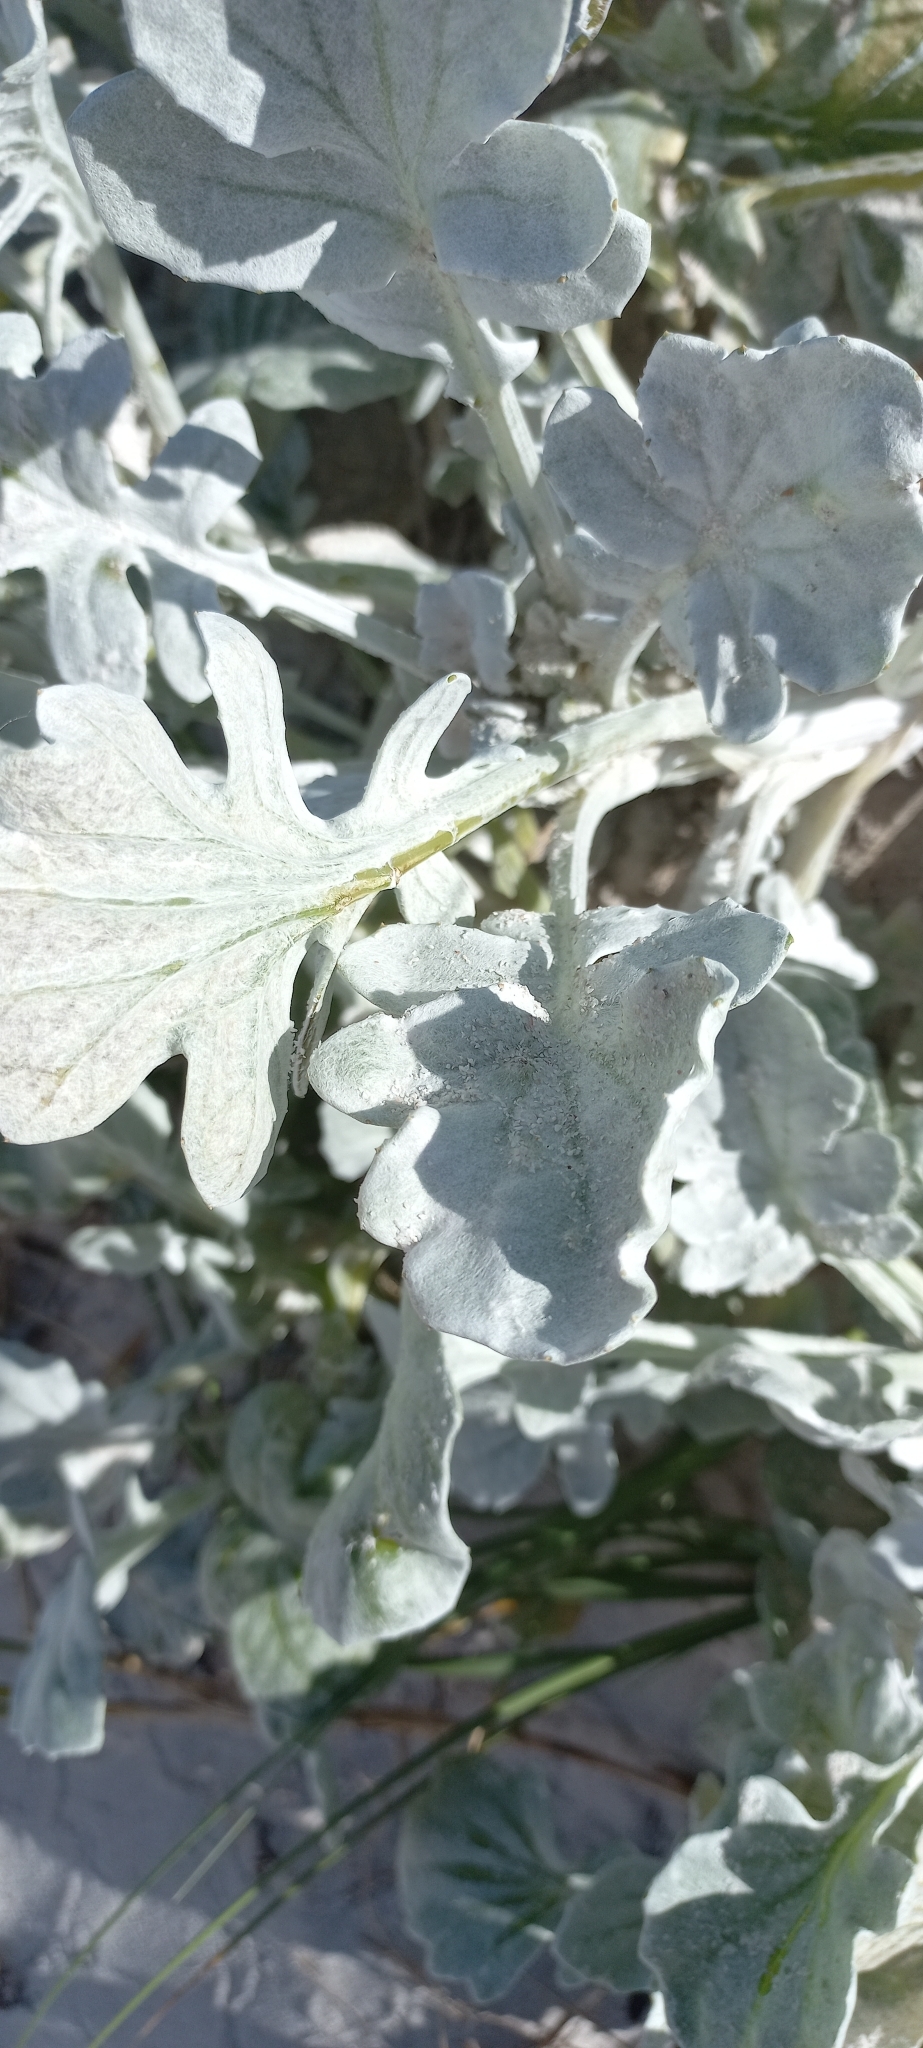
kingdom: Plantae
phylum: Tracheophyta
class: Magnoliopsida
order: Asterales
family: Asteraceae
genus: Arctotheca
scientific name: Arctotheca populifolia
